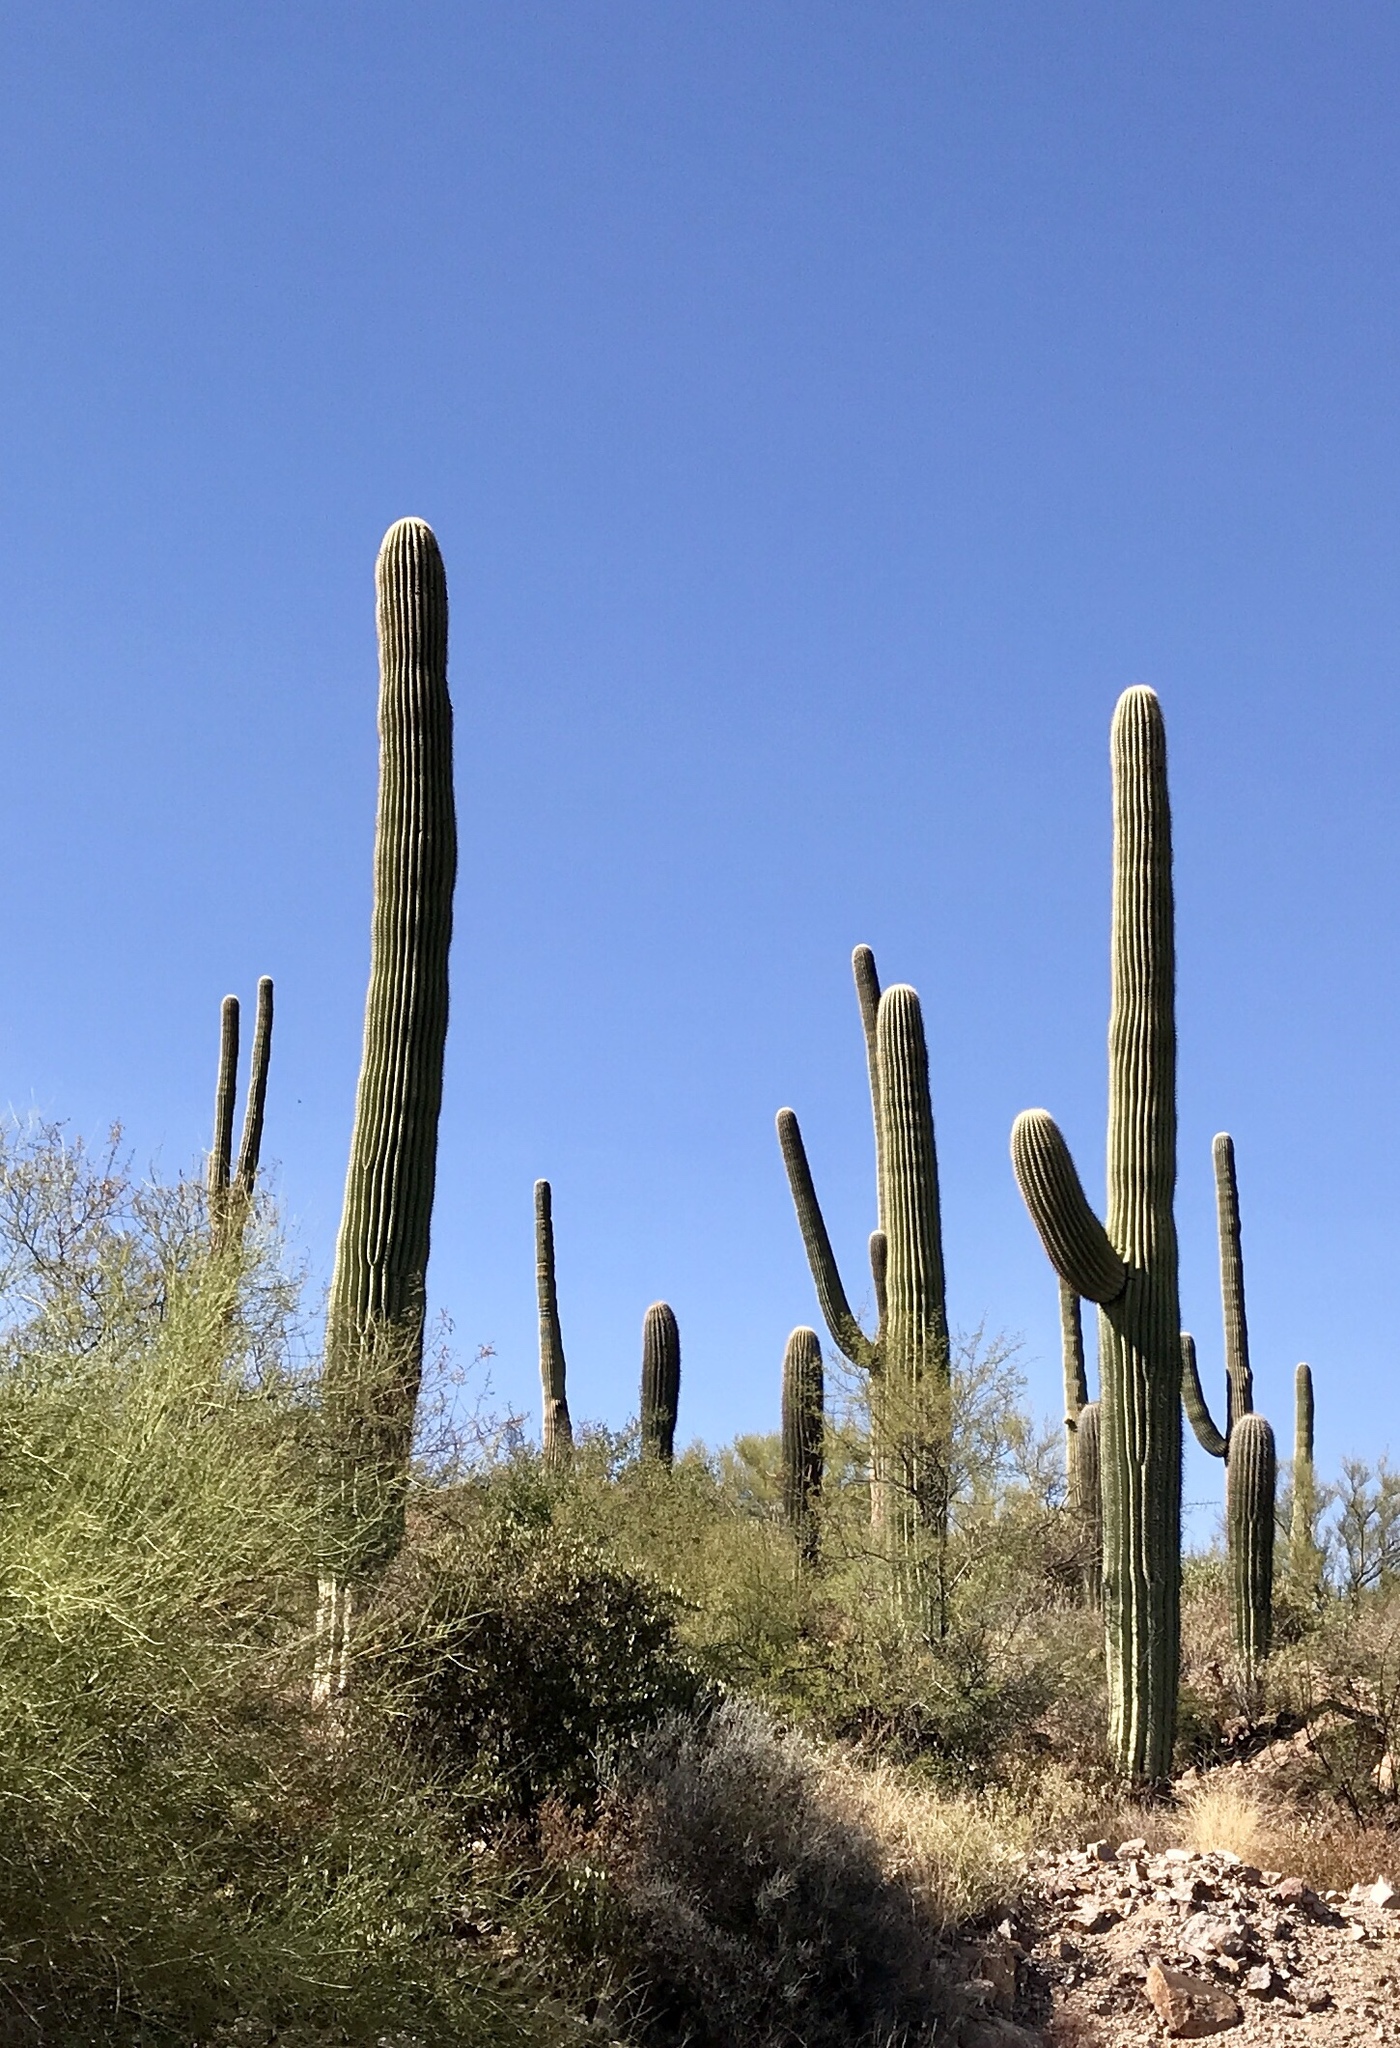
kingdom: Plantae
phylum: Tracheophyta
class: Magnoliopsida
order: Caryophyllales
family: Cactaceae
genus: Carnegiea
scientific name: Carnegiea gigantea
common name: Saguaro
